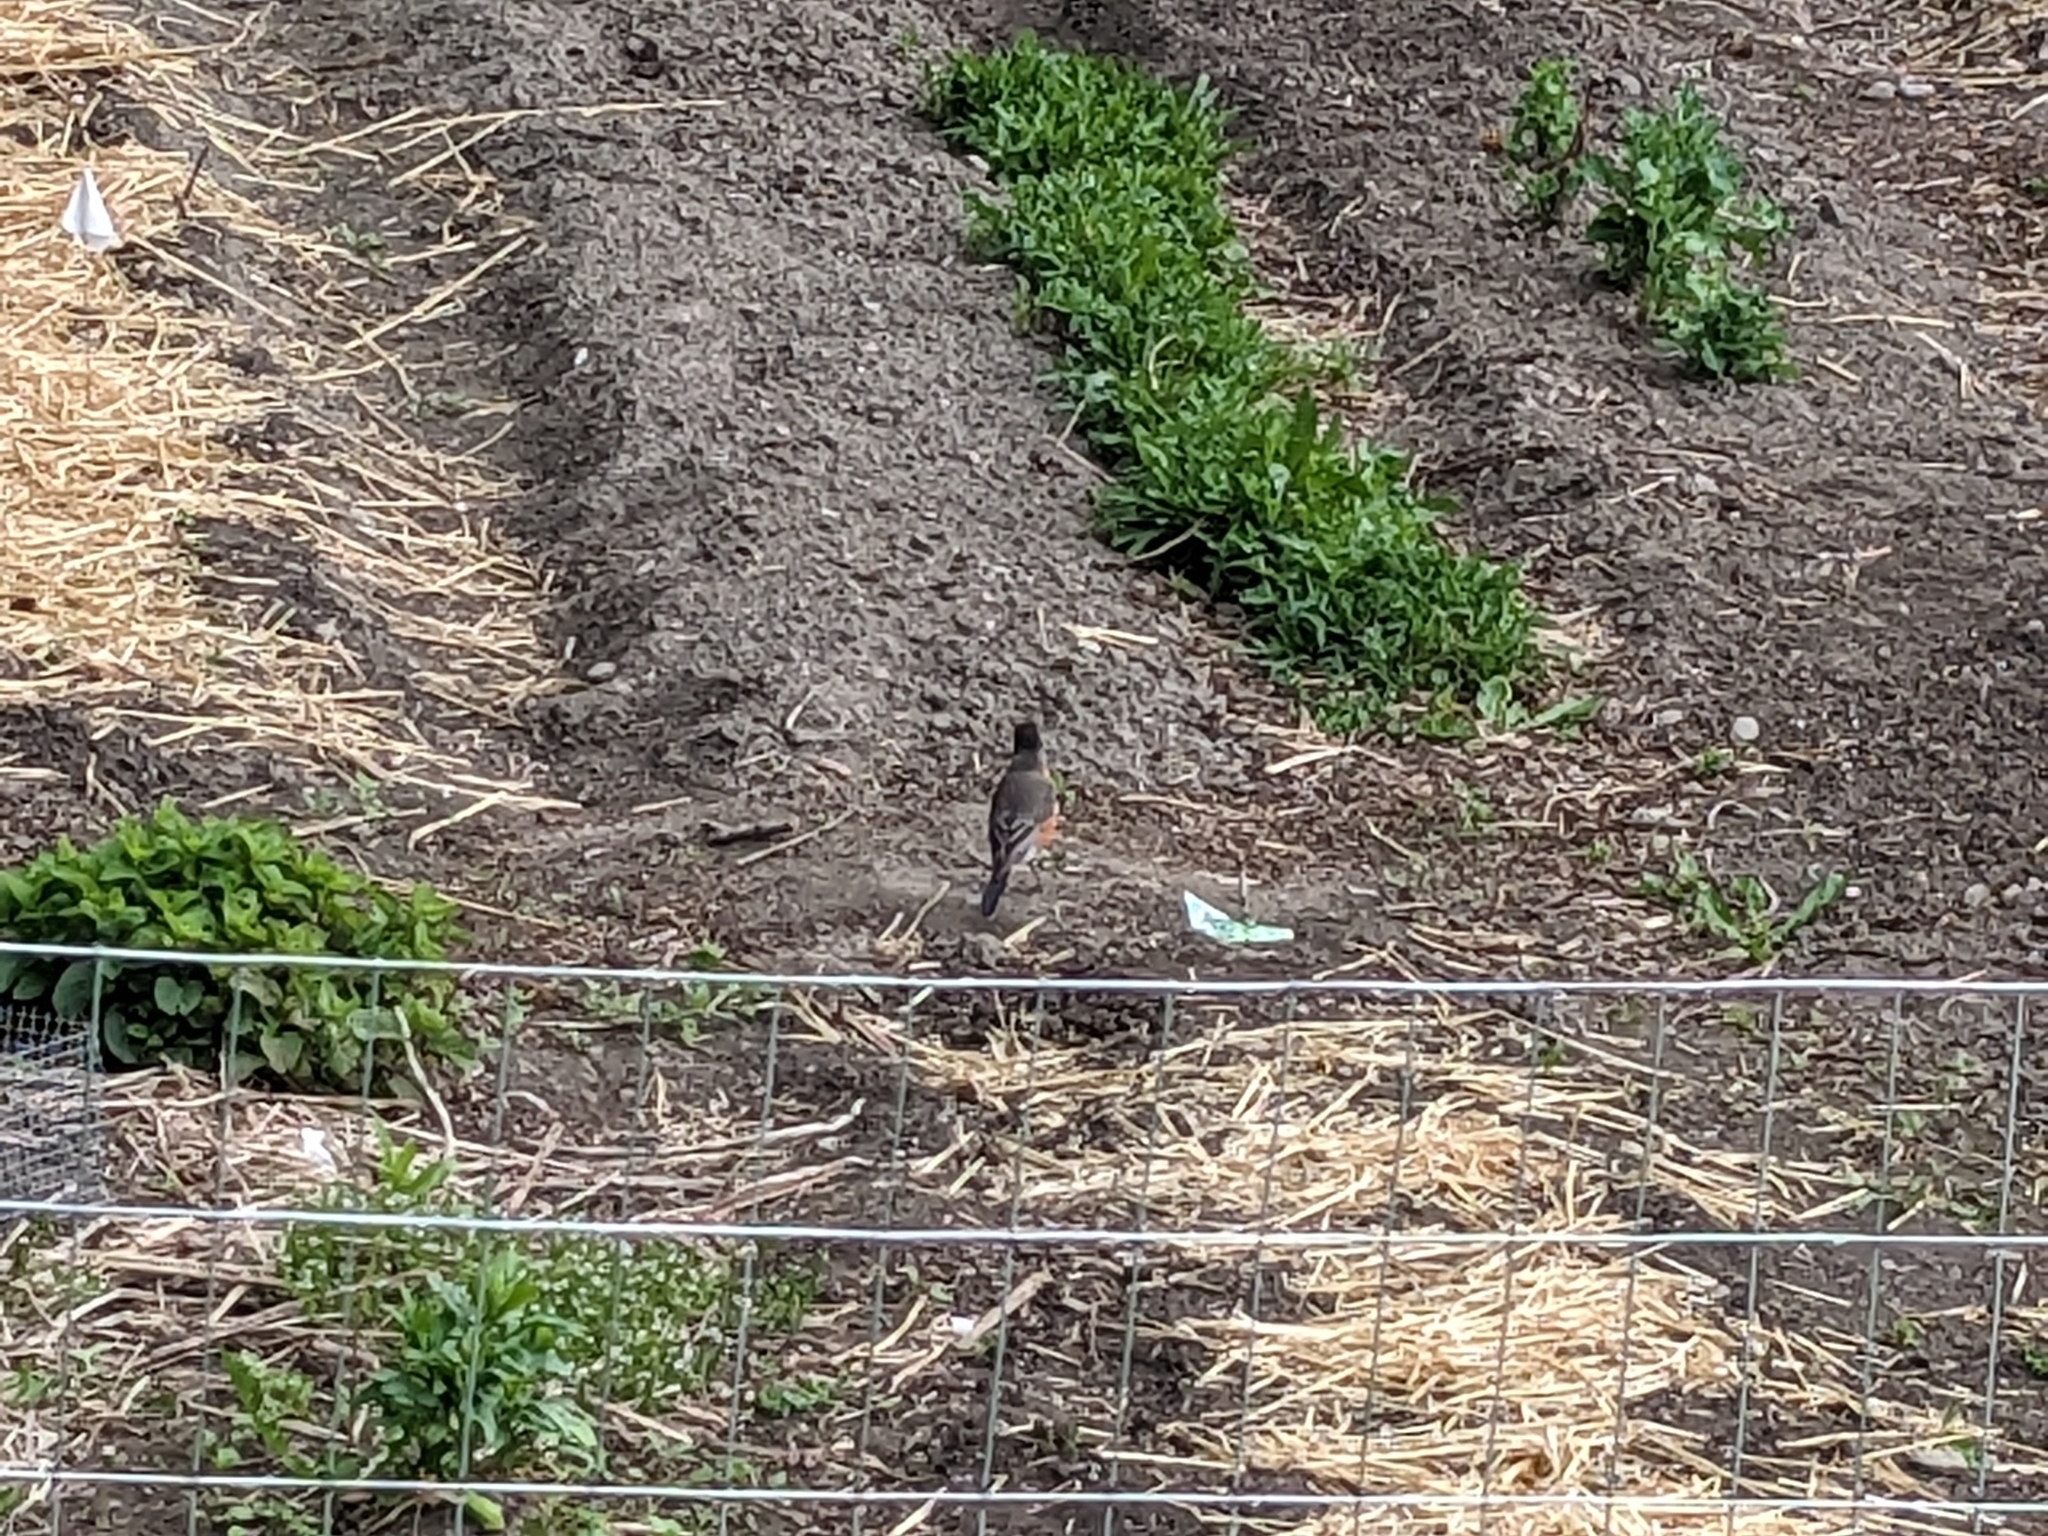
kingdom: Animalia
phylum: Chordata
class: Aves
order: Passeriformes
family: Turdidae
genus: Turdus
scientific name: Turdus migratorius
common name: American robin
